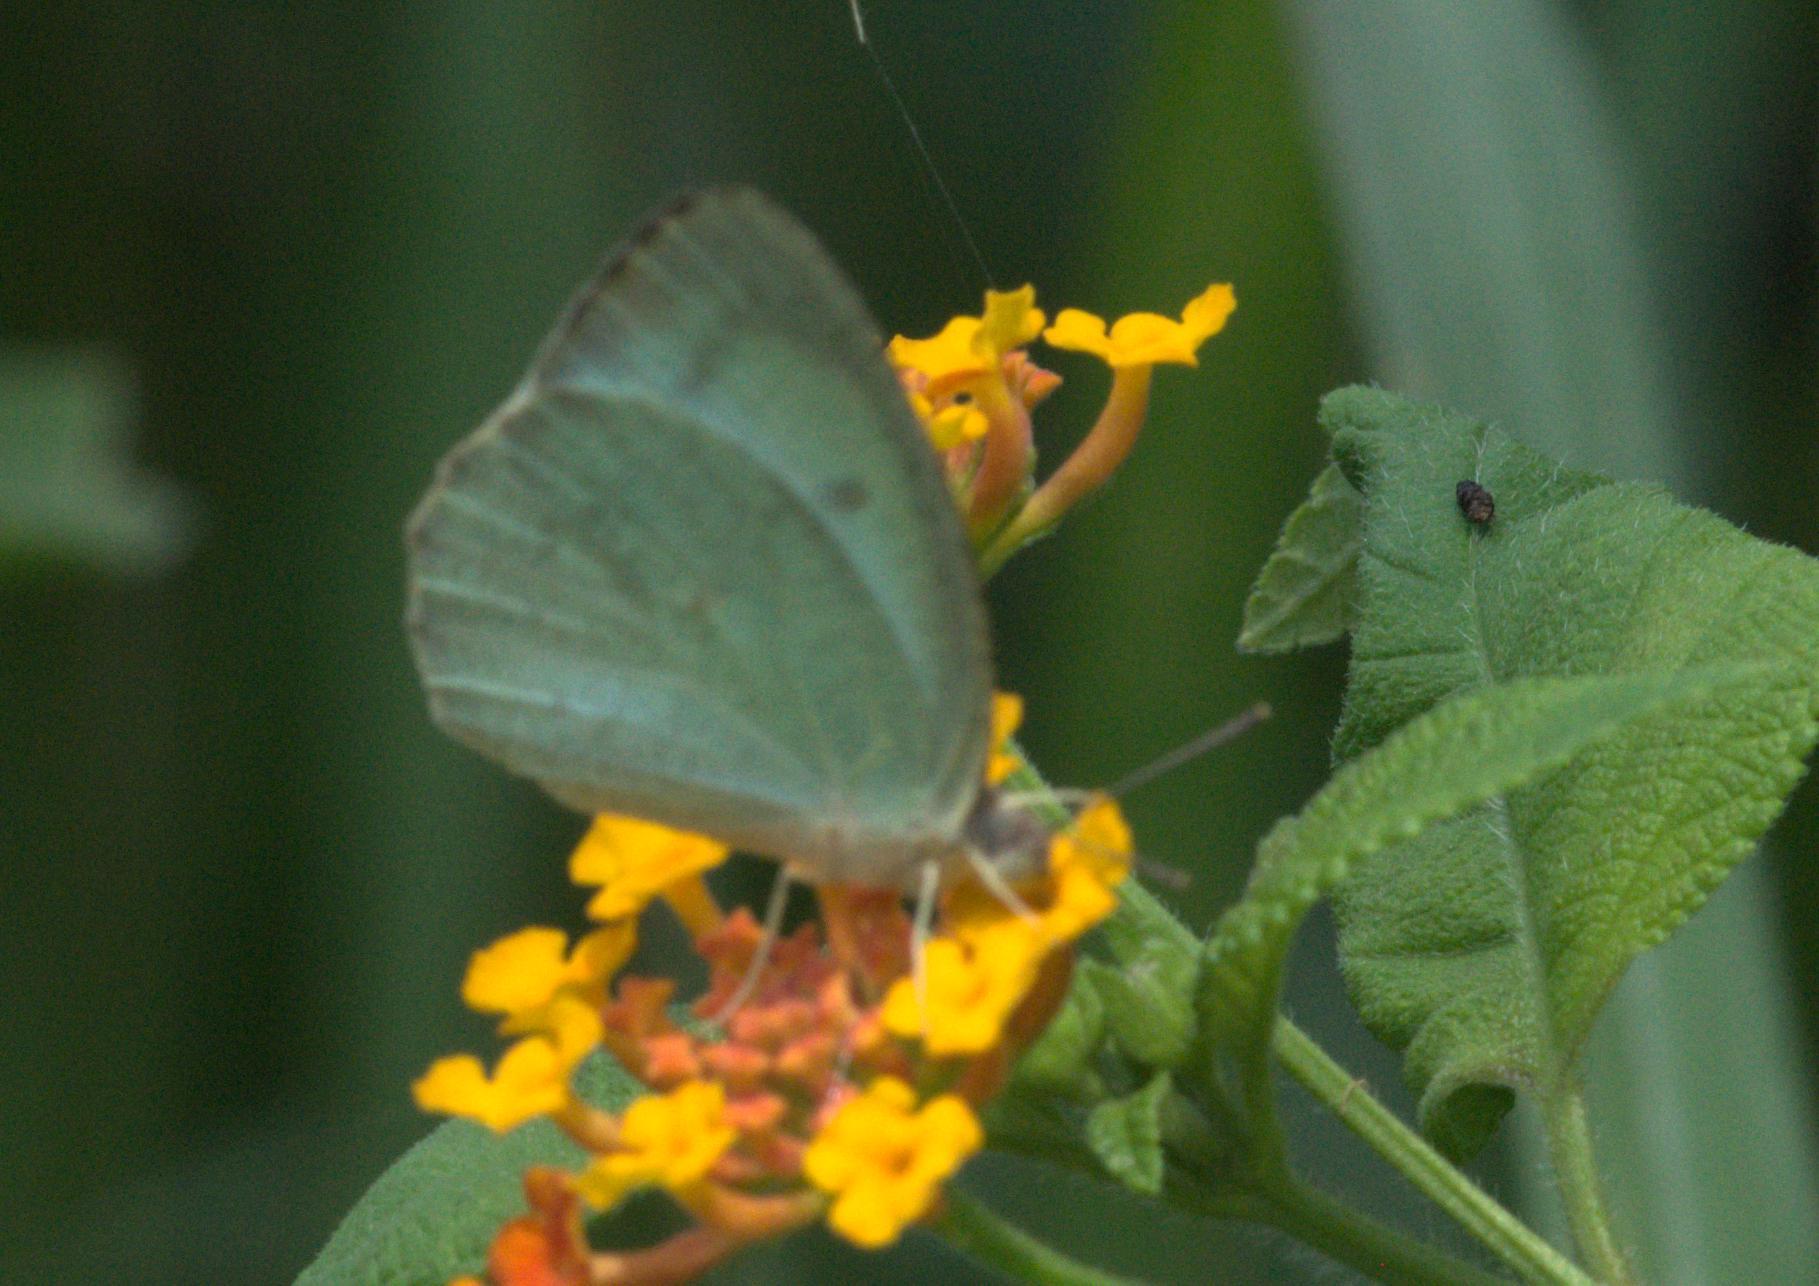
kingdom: Animalia
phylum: Arthropoda
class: Insecta
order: Lepidoptera
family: Pieridae
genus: Catopsilia
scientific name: Catopsilia pyranthe
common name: Mottled emigrant
